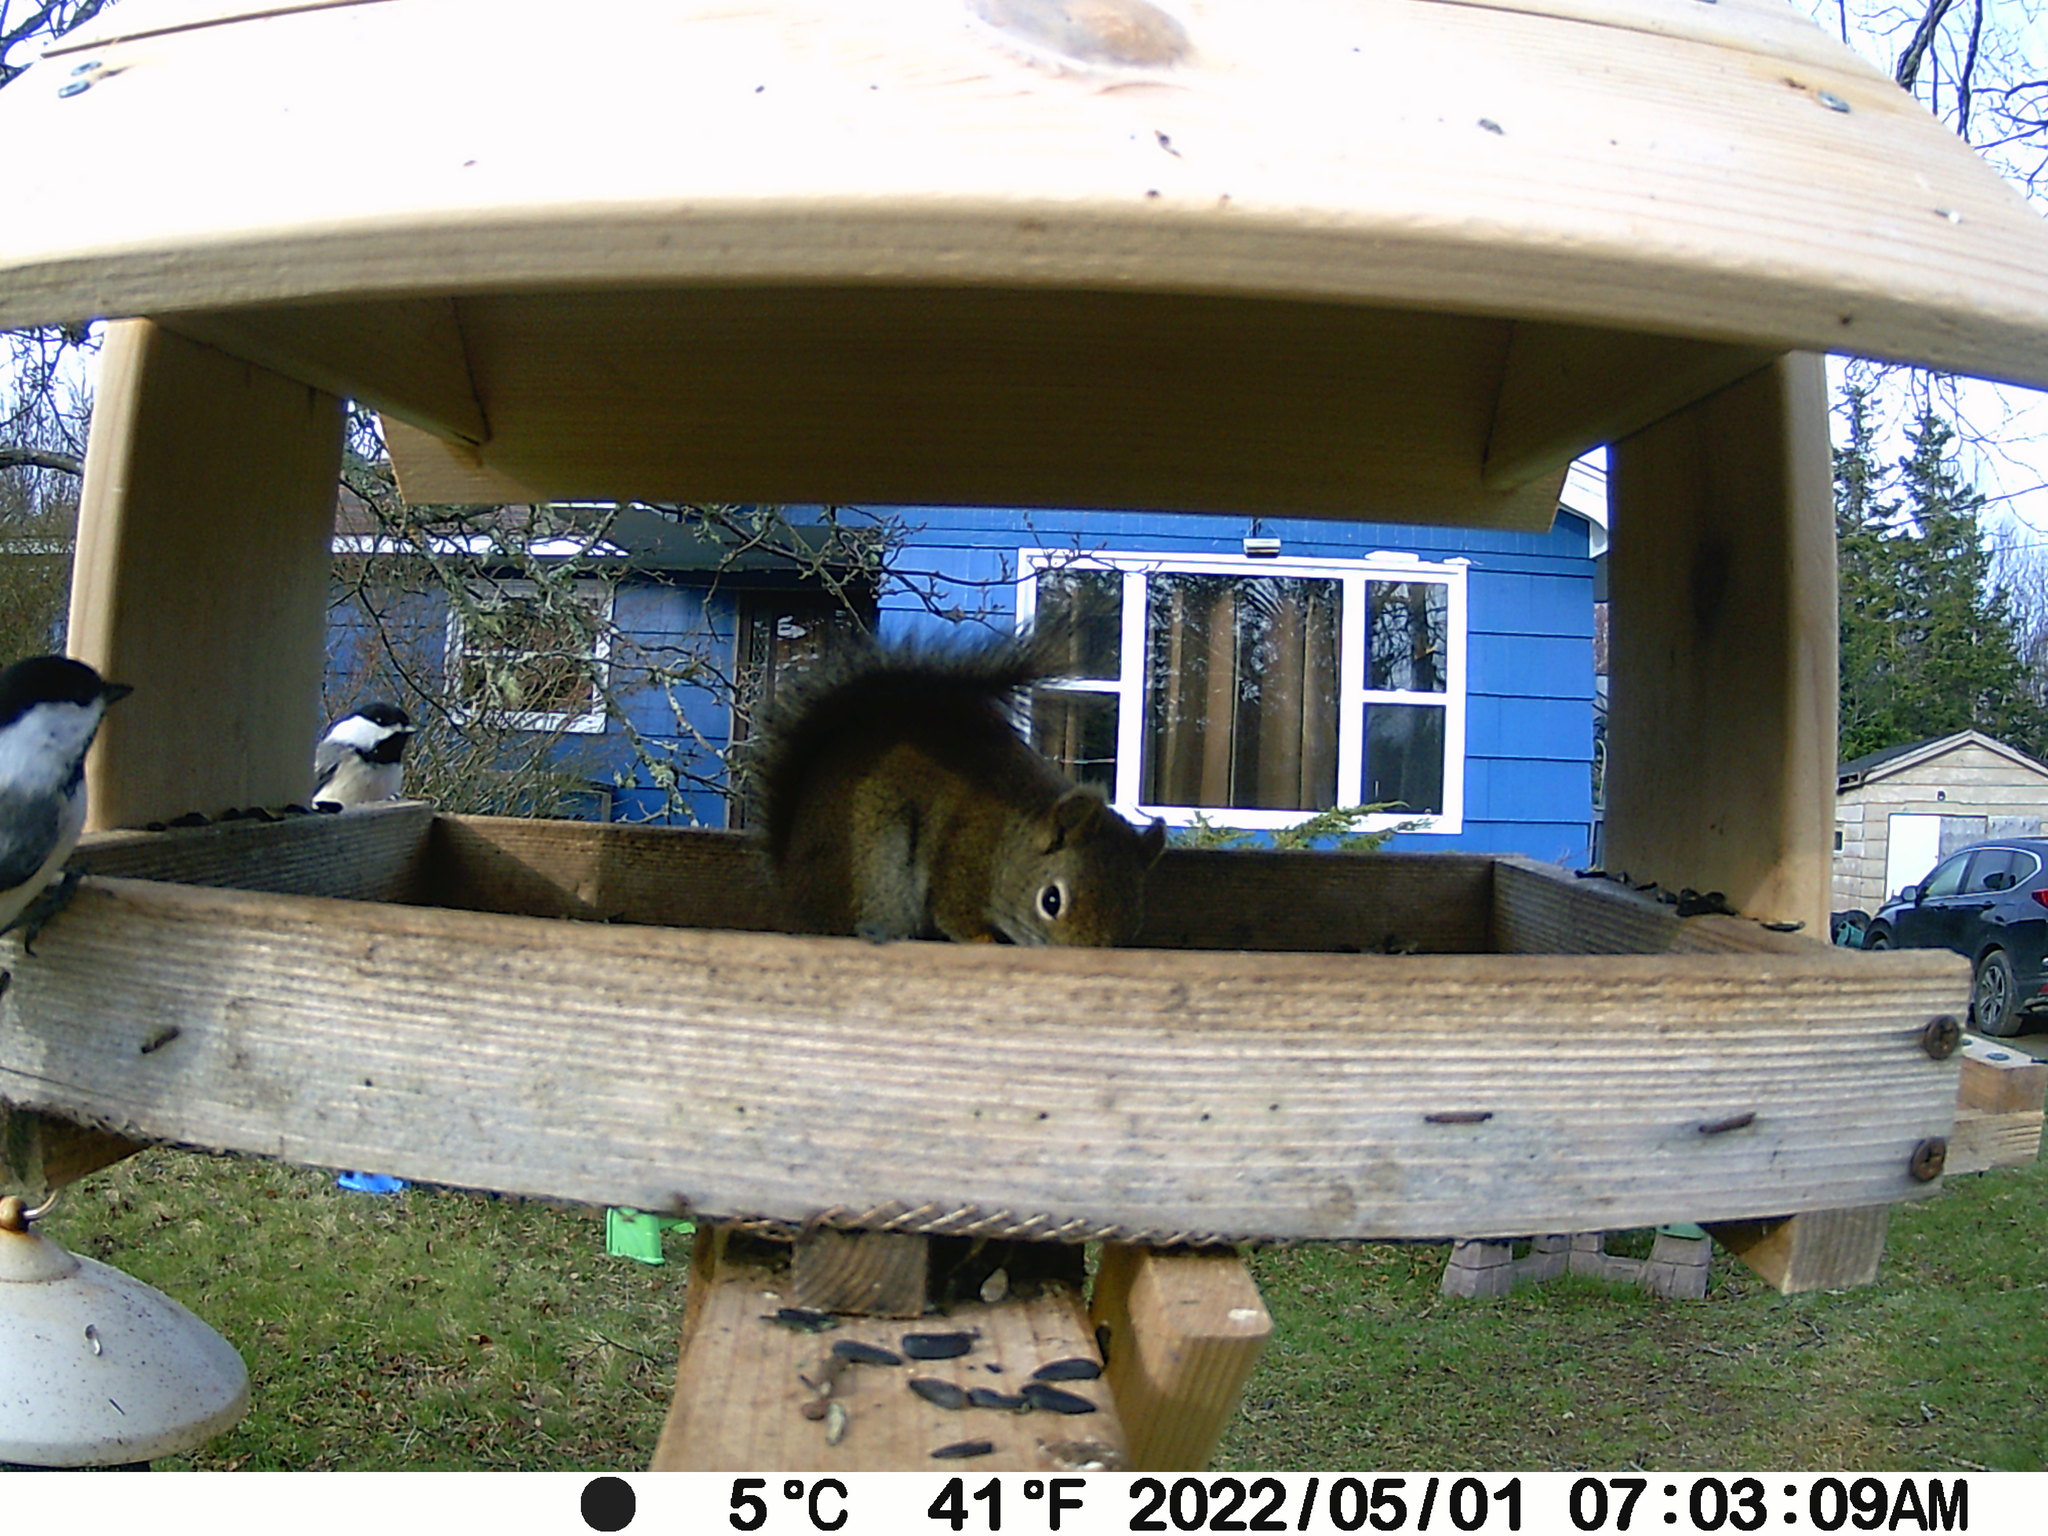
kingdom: Animalia
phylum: Chordata
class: Aves
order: Passeriformes
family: Paridae
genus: Poecile
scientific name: Poecile atricapillus
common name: Black-capped chickadee
